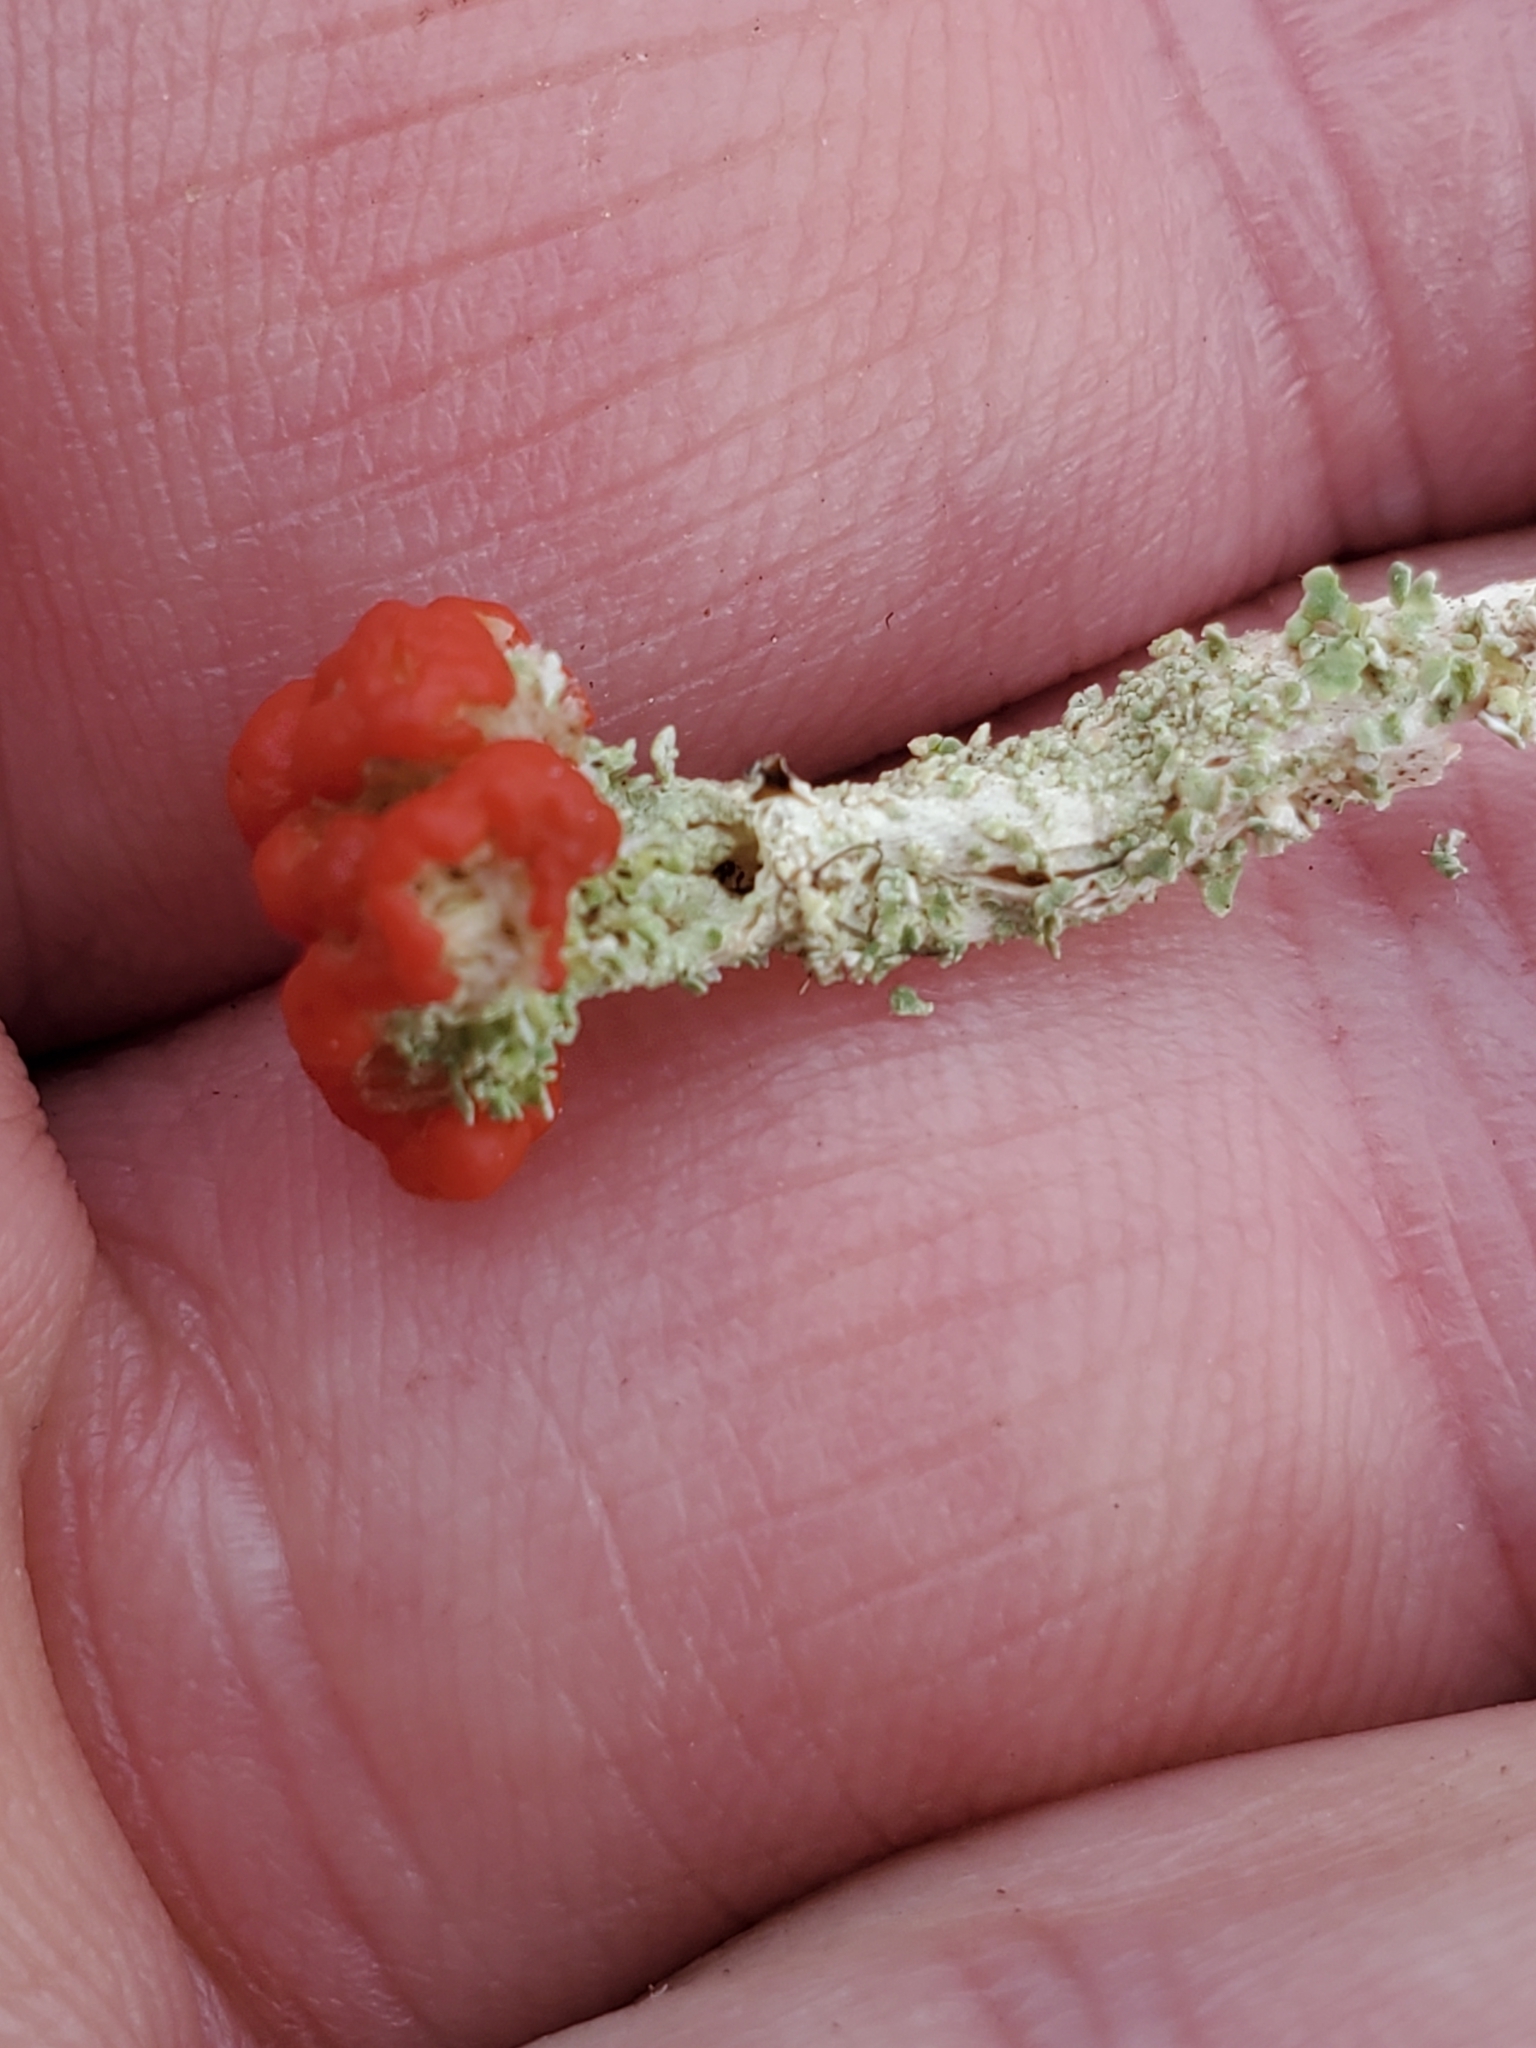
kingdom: Fungi
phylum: Ascomycota
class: Lecanoromycetes
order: Lecanorales
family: Cladoniaceae
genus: Cladonia
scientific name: Cladonia bellidiflora
